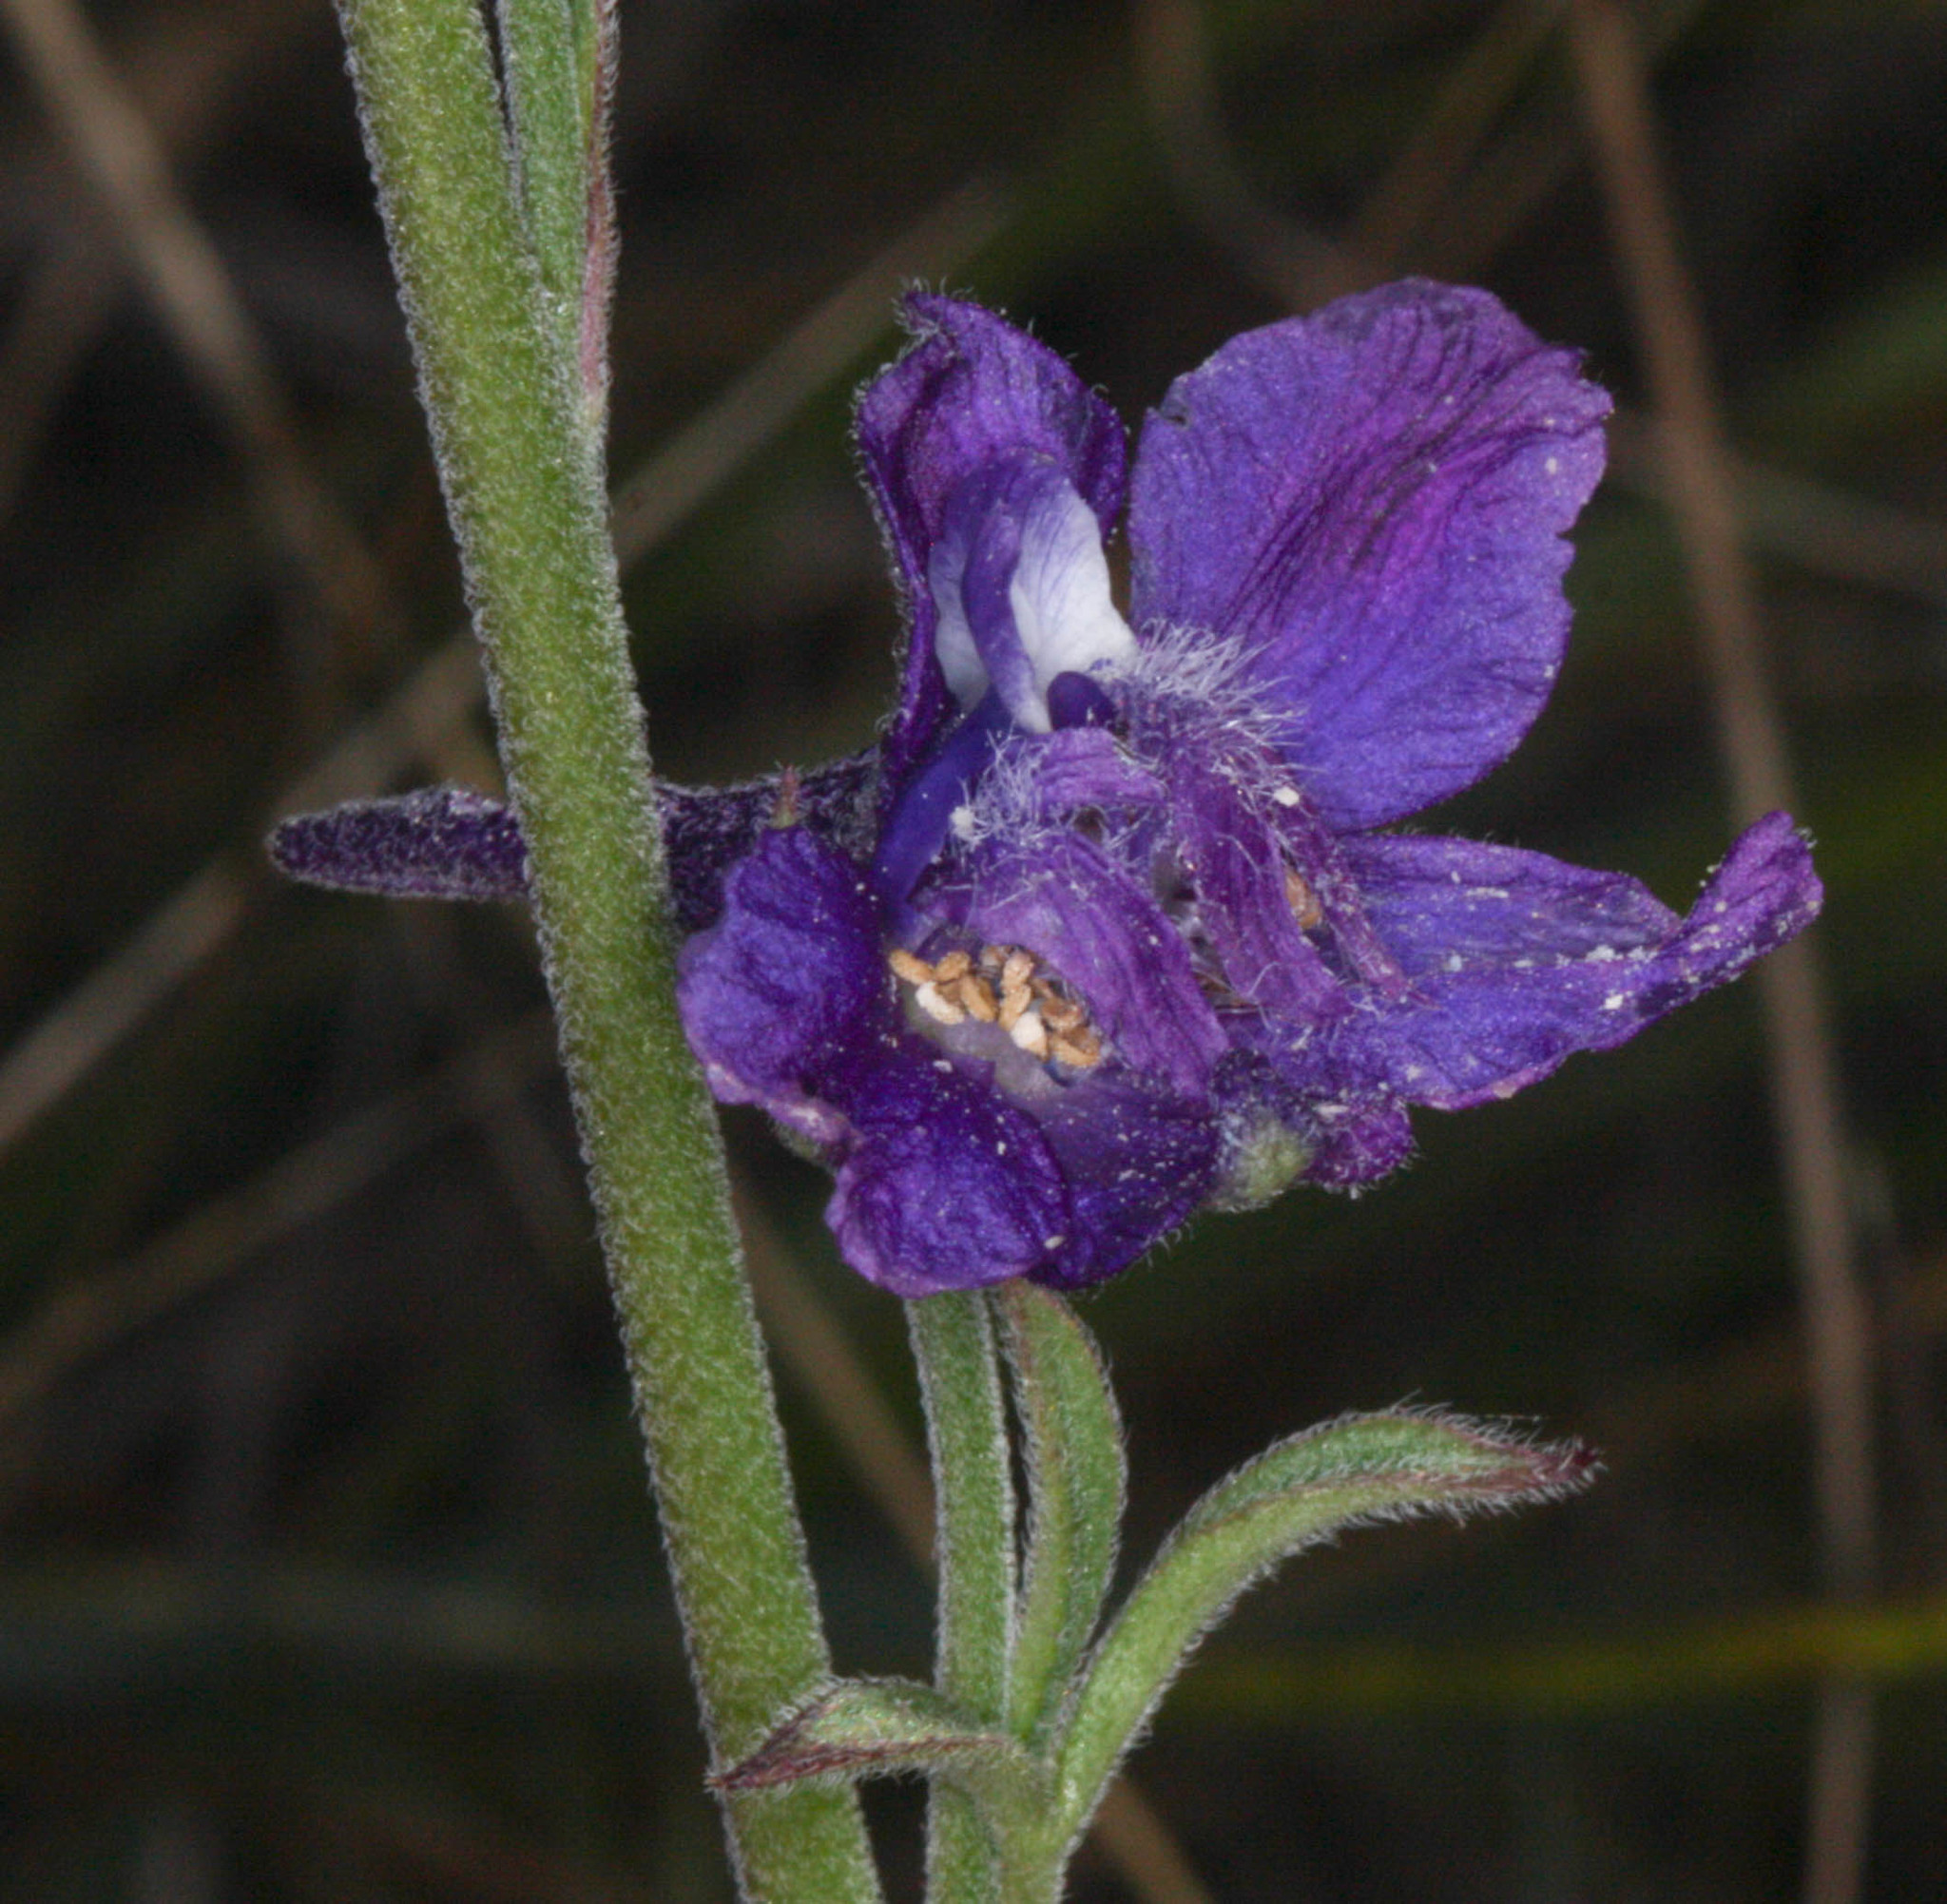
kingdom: Plantae
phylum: Tracheophyta
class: Magnoliopsida
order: Ranunculales
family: Ranunculaceae
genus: Delphinium
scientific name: Delphinium hesperium
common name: Western larkspur
